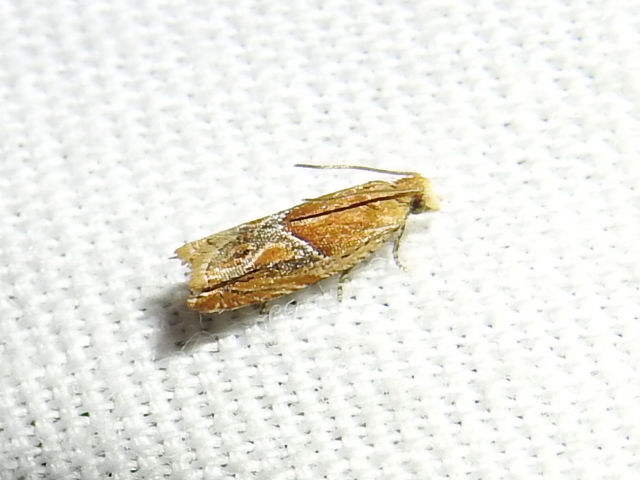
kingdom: Animalia
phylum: Arthropoda
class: Insecta
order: Lepidoptera
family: Tortricidae
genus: Ancylis
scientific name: Ancylis comptana
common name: Little roller
